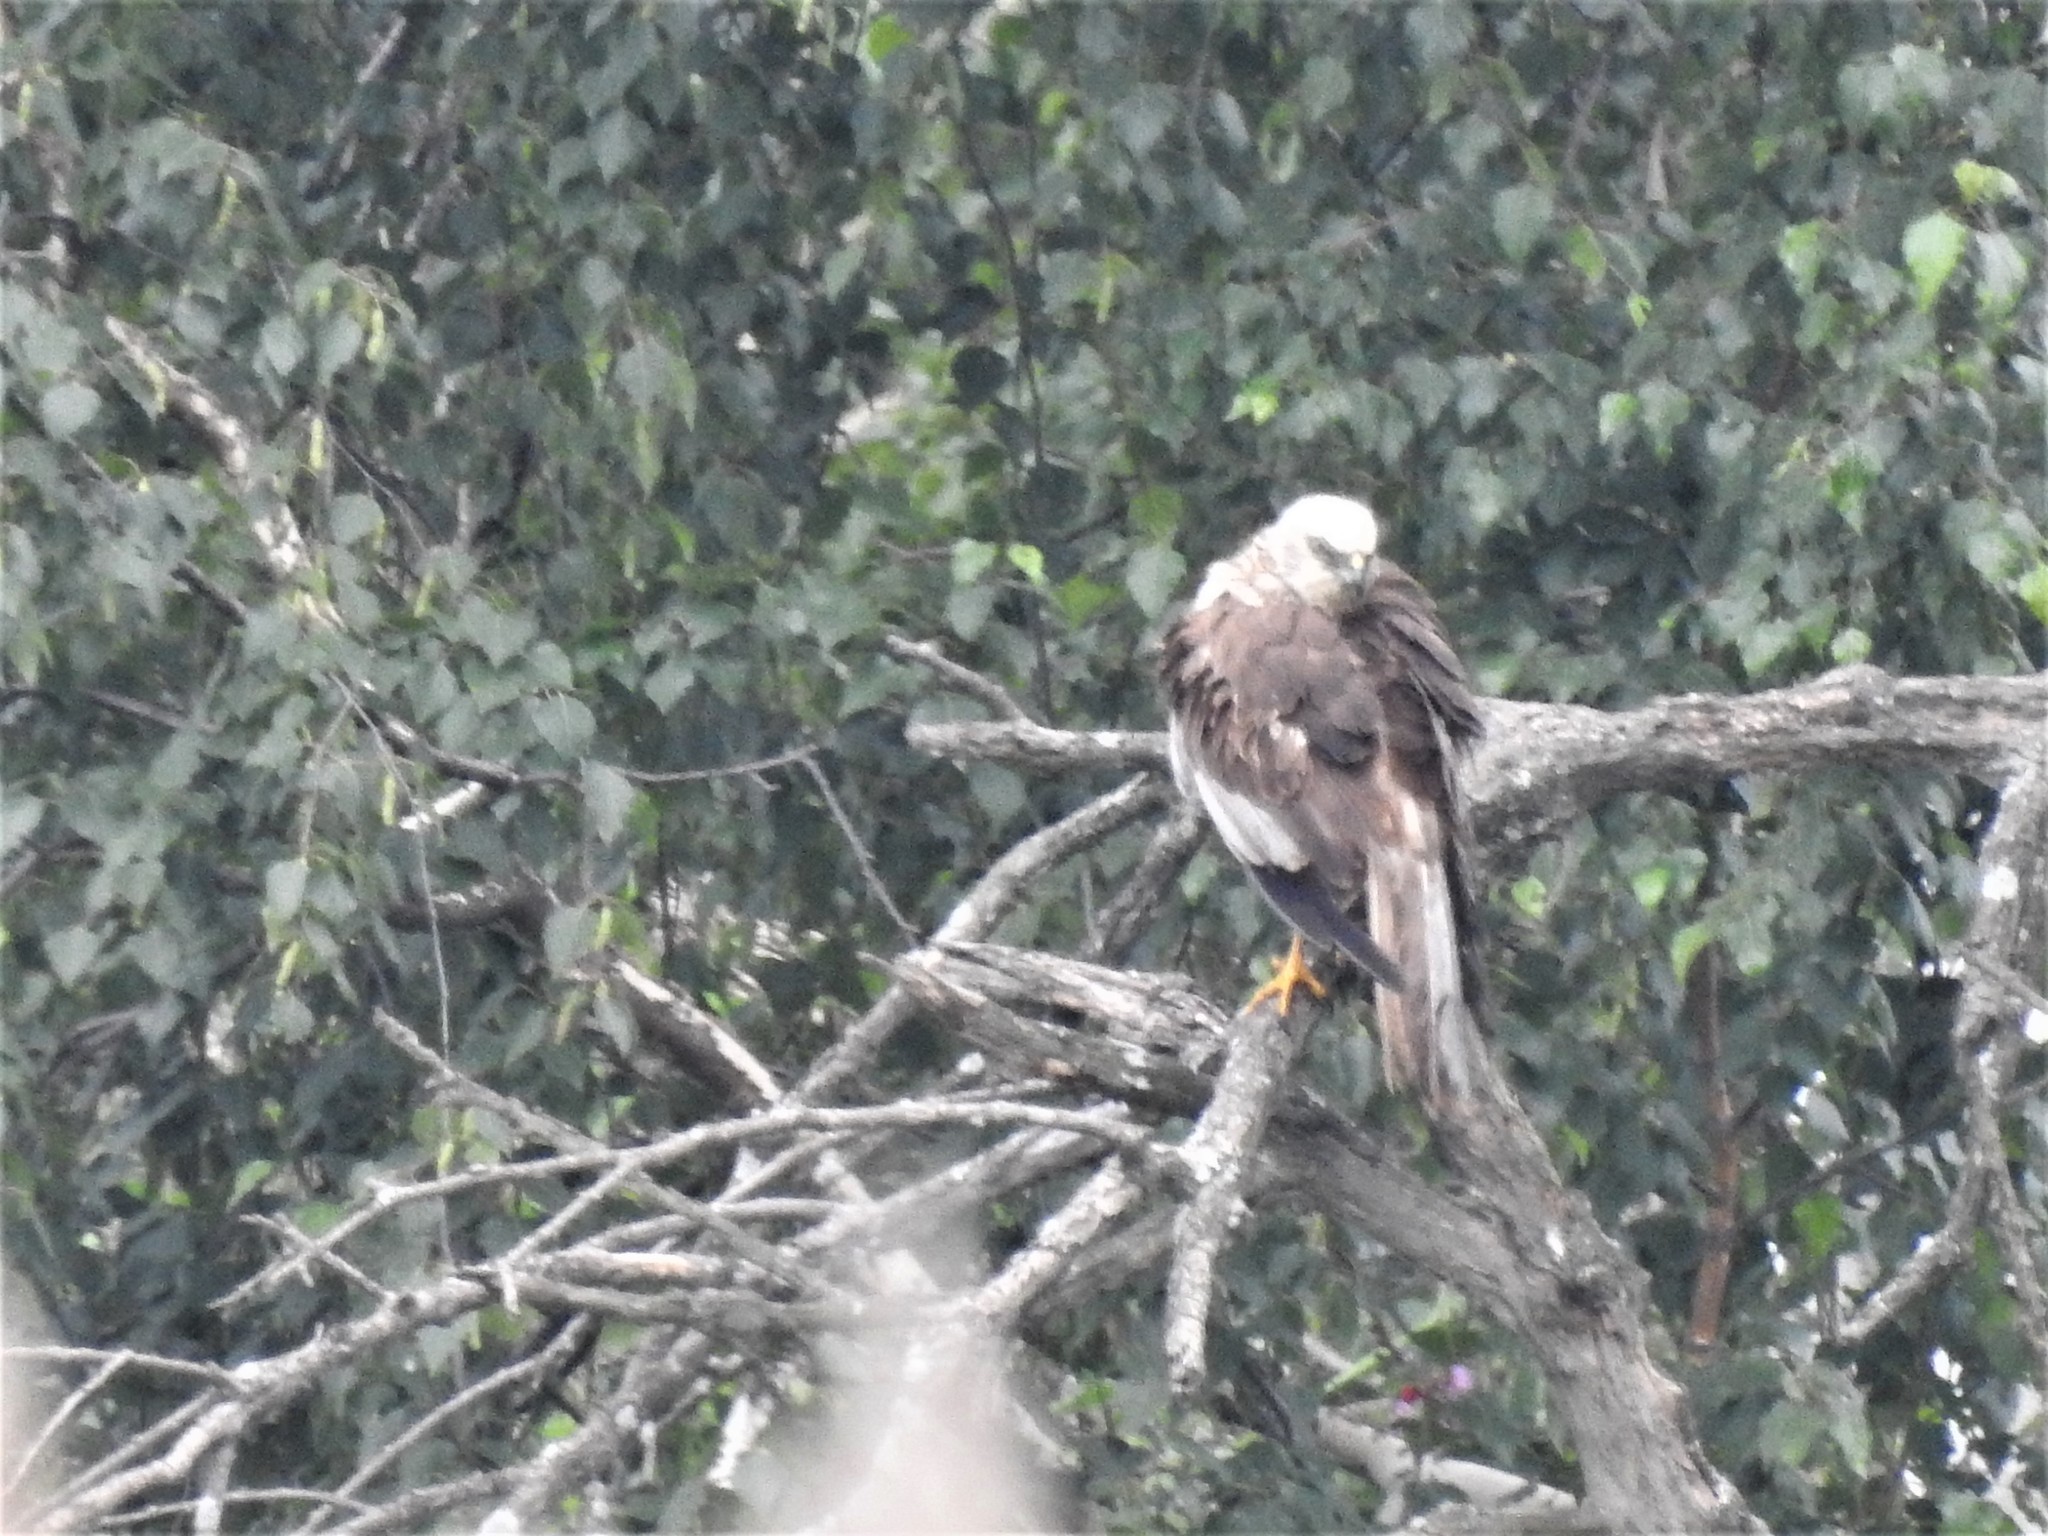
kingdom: Animalia
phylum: Chordata
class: Aves
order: Accipitriformes
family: Accipitridae
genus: Circus
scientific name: Circus aeruginosus
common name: Western marsh harrier
